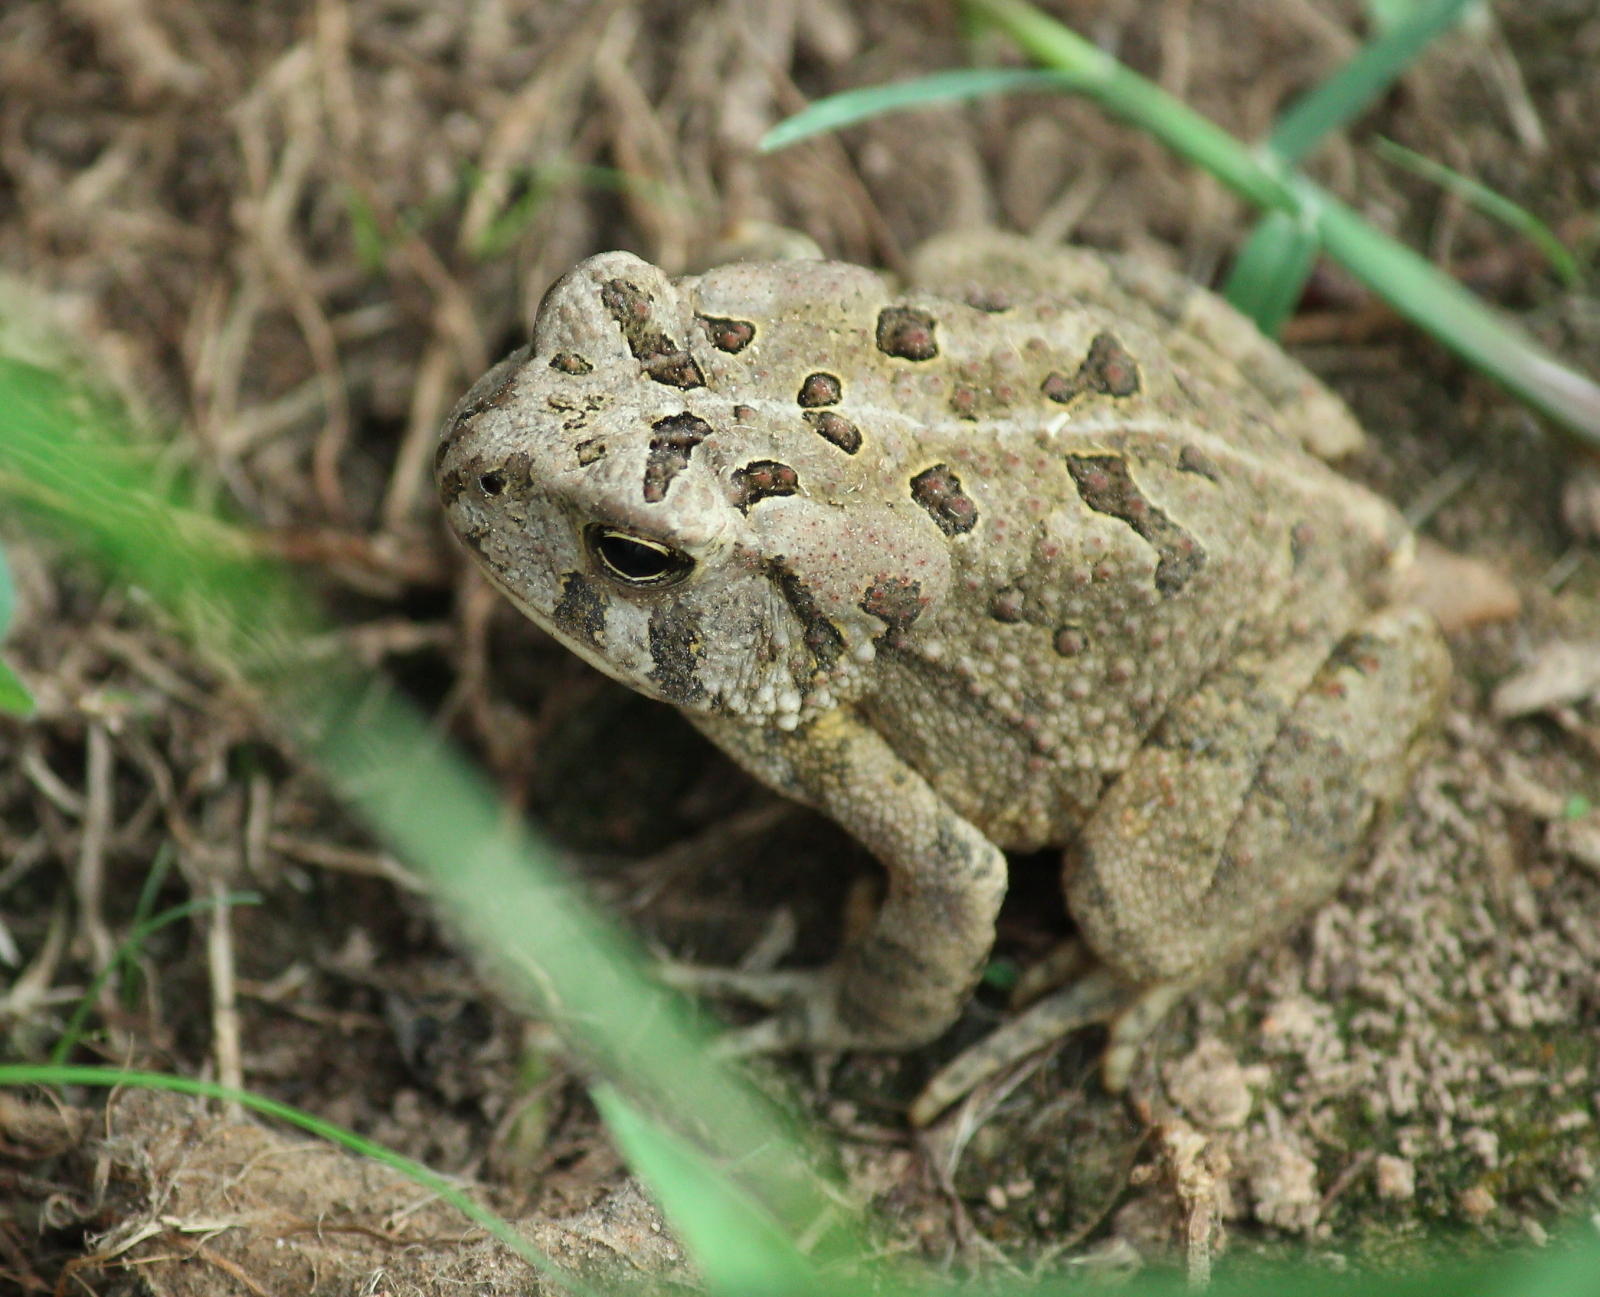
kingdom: Animalia
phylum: Chordata
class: Amphibia
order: Anura
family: Bufonidae
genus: Anaxyrus
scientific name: Anaxyrus fowleri
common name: Fowler's toad
